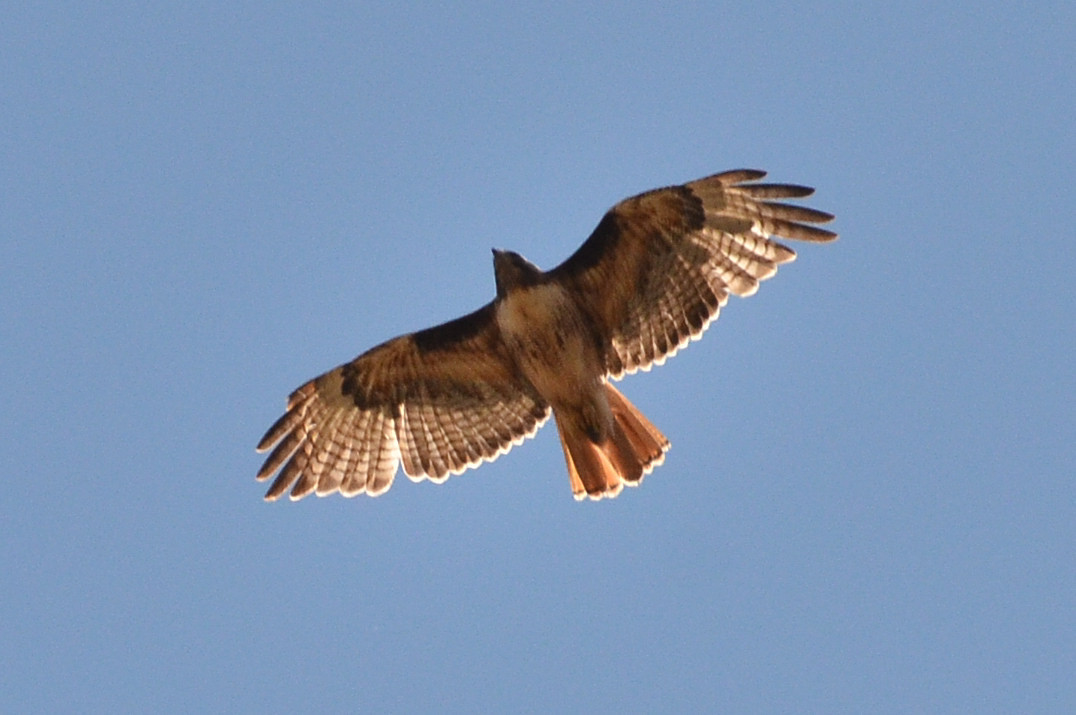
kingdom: Animalia
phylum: Chordata
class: Aves
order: Accipitriformes
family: Accipitridae
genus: Buteo
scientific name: Buteo jamaicensis
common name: Red-tailed hawk
